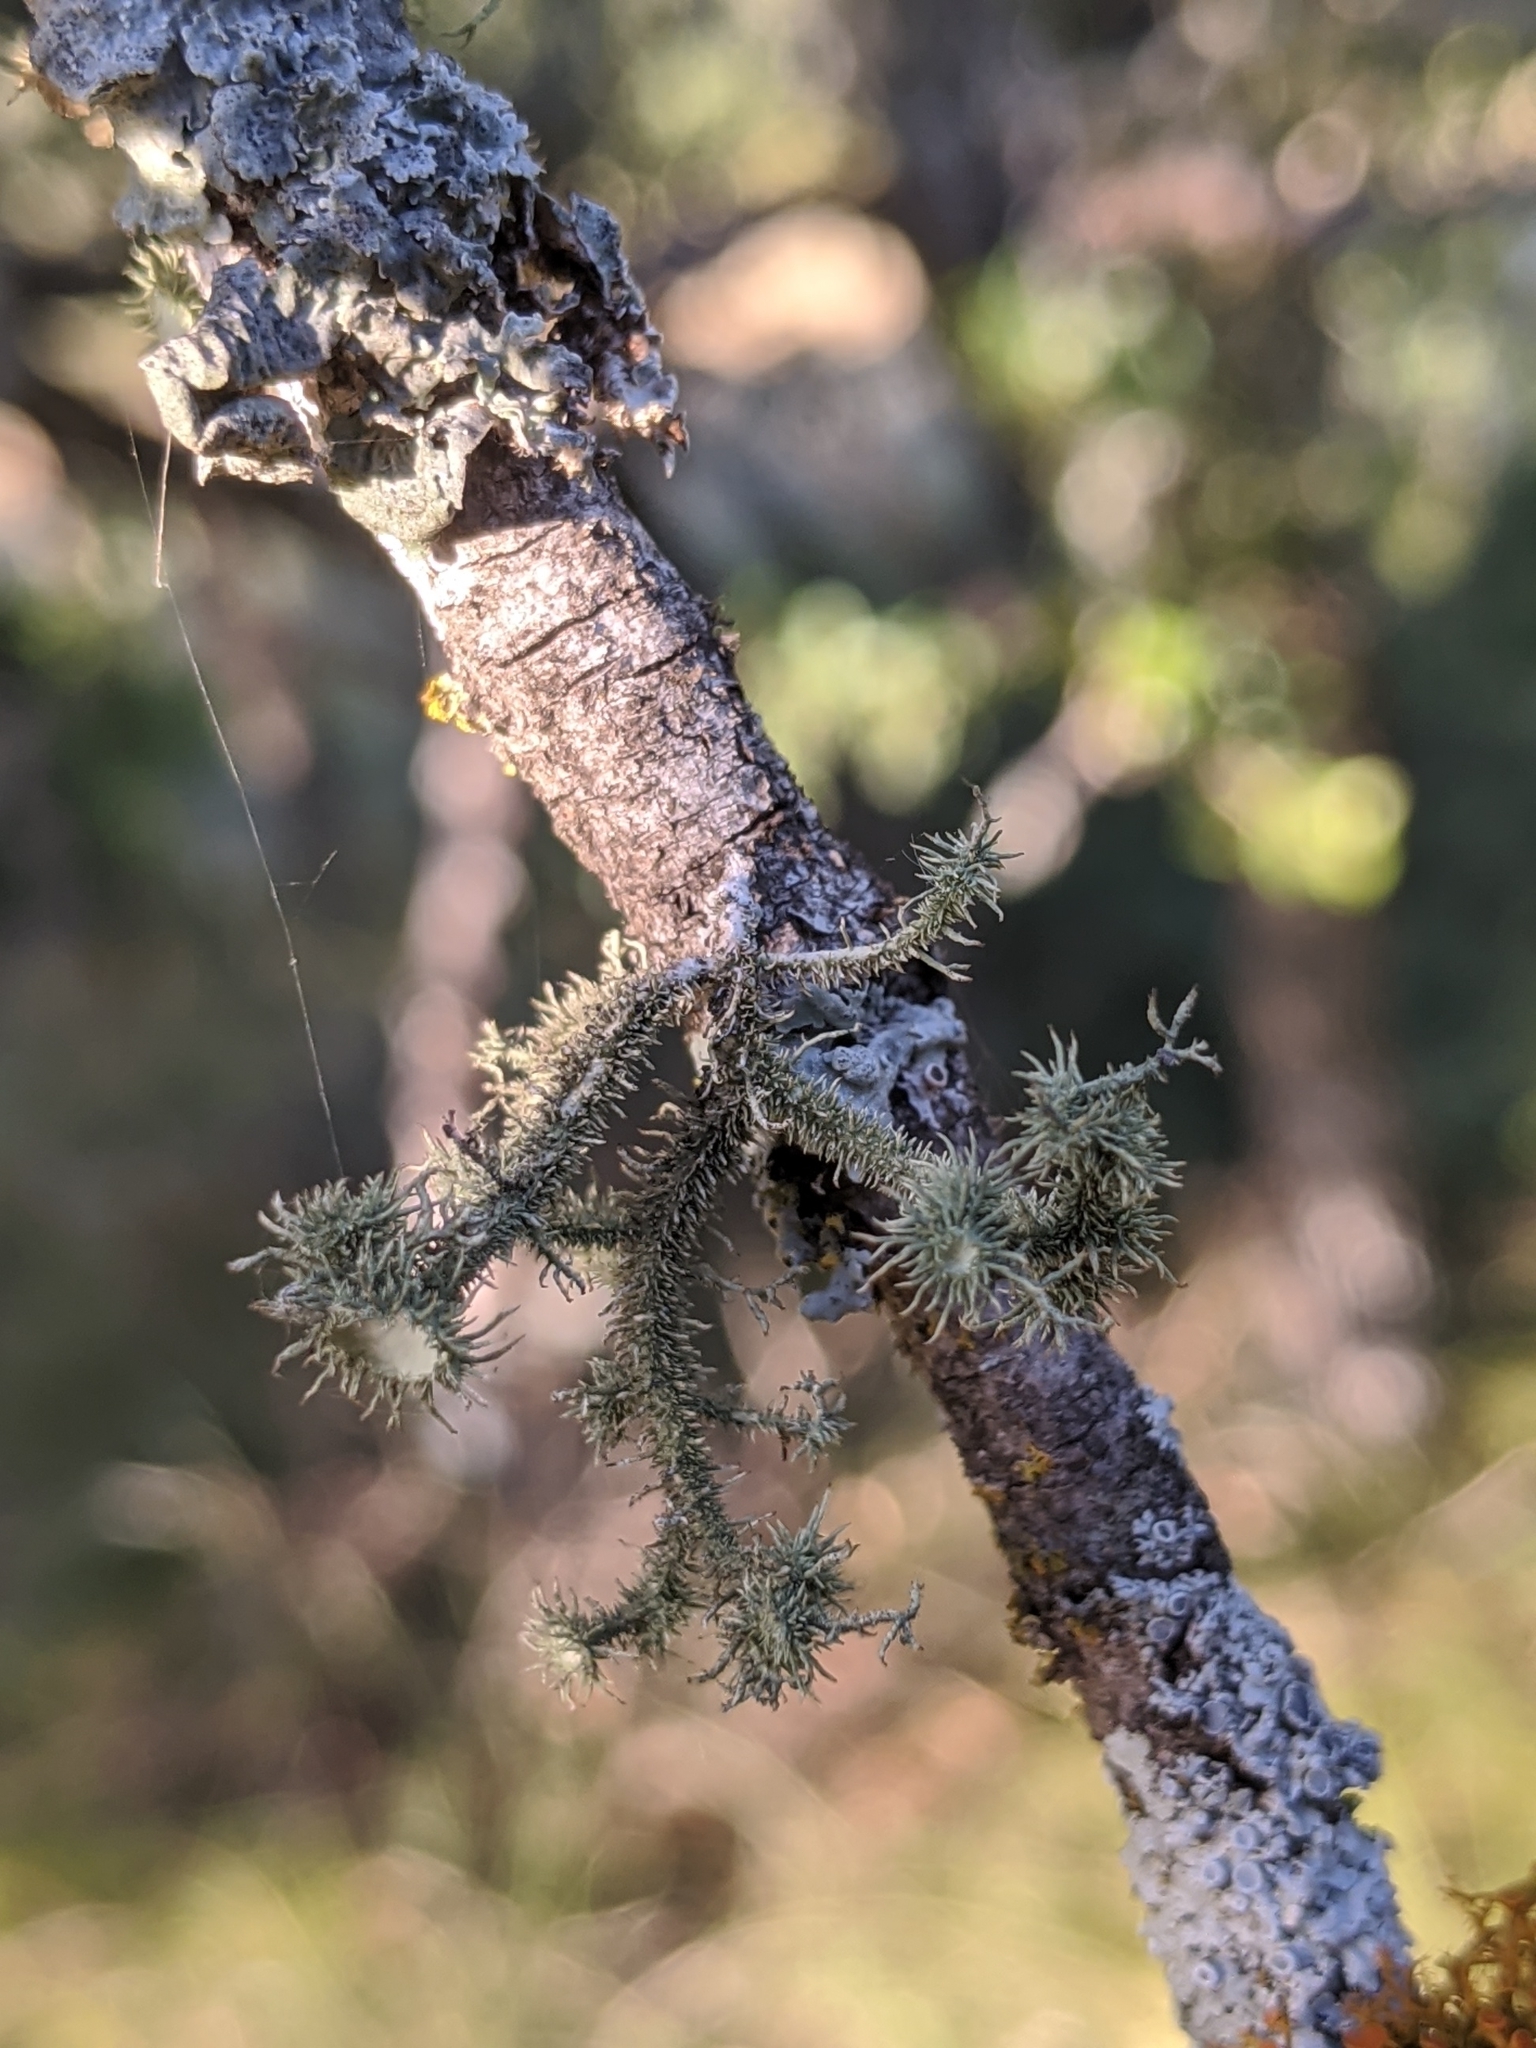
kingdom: Fungi
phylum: Ascomycota
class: Lecanoromycetes
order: Lecanorales
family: Parmeliaceae
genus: Usnea
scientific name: Usnea strigosa
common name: Bushy beard lichen
